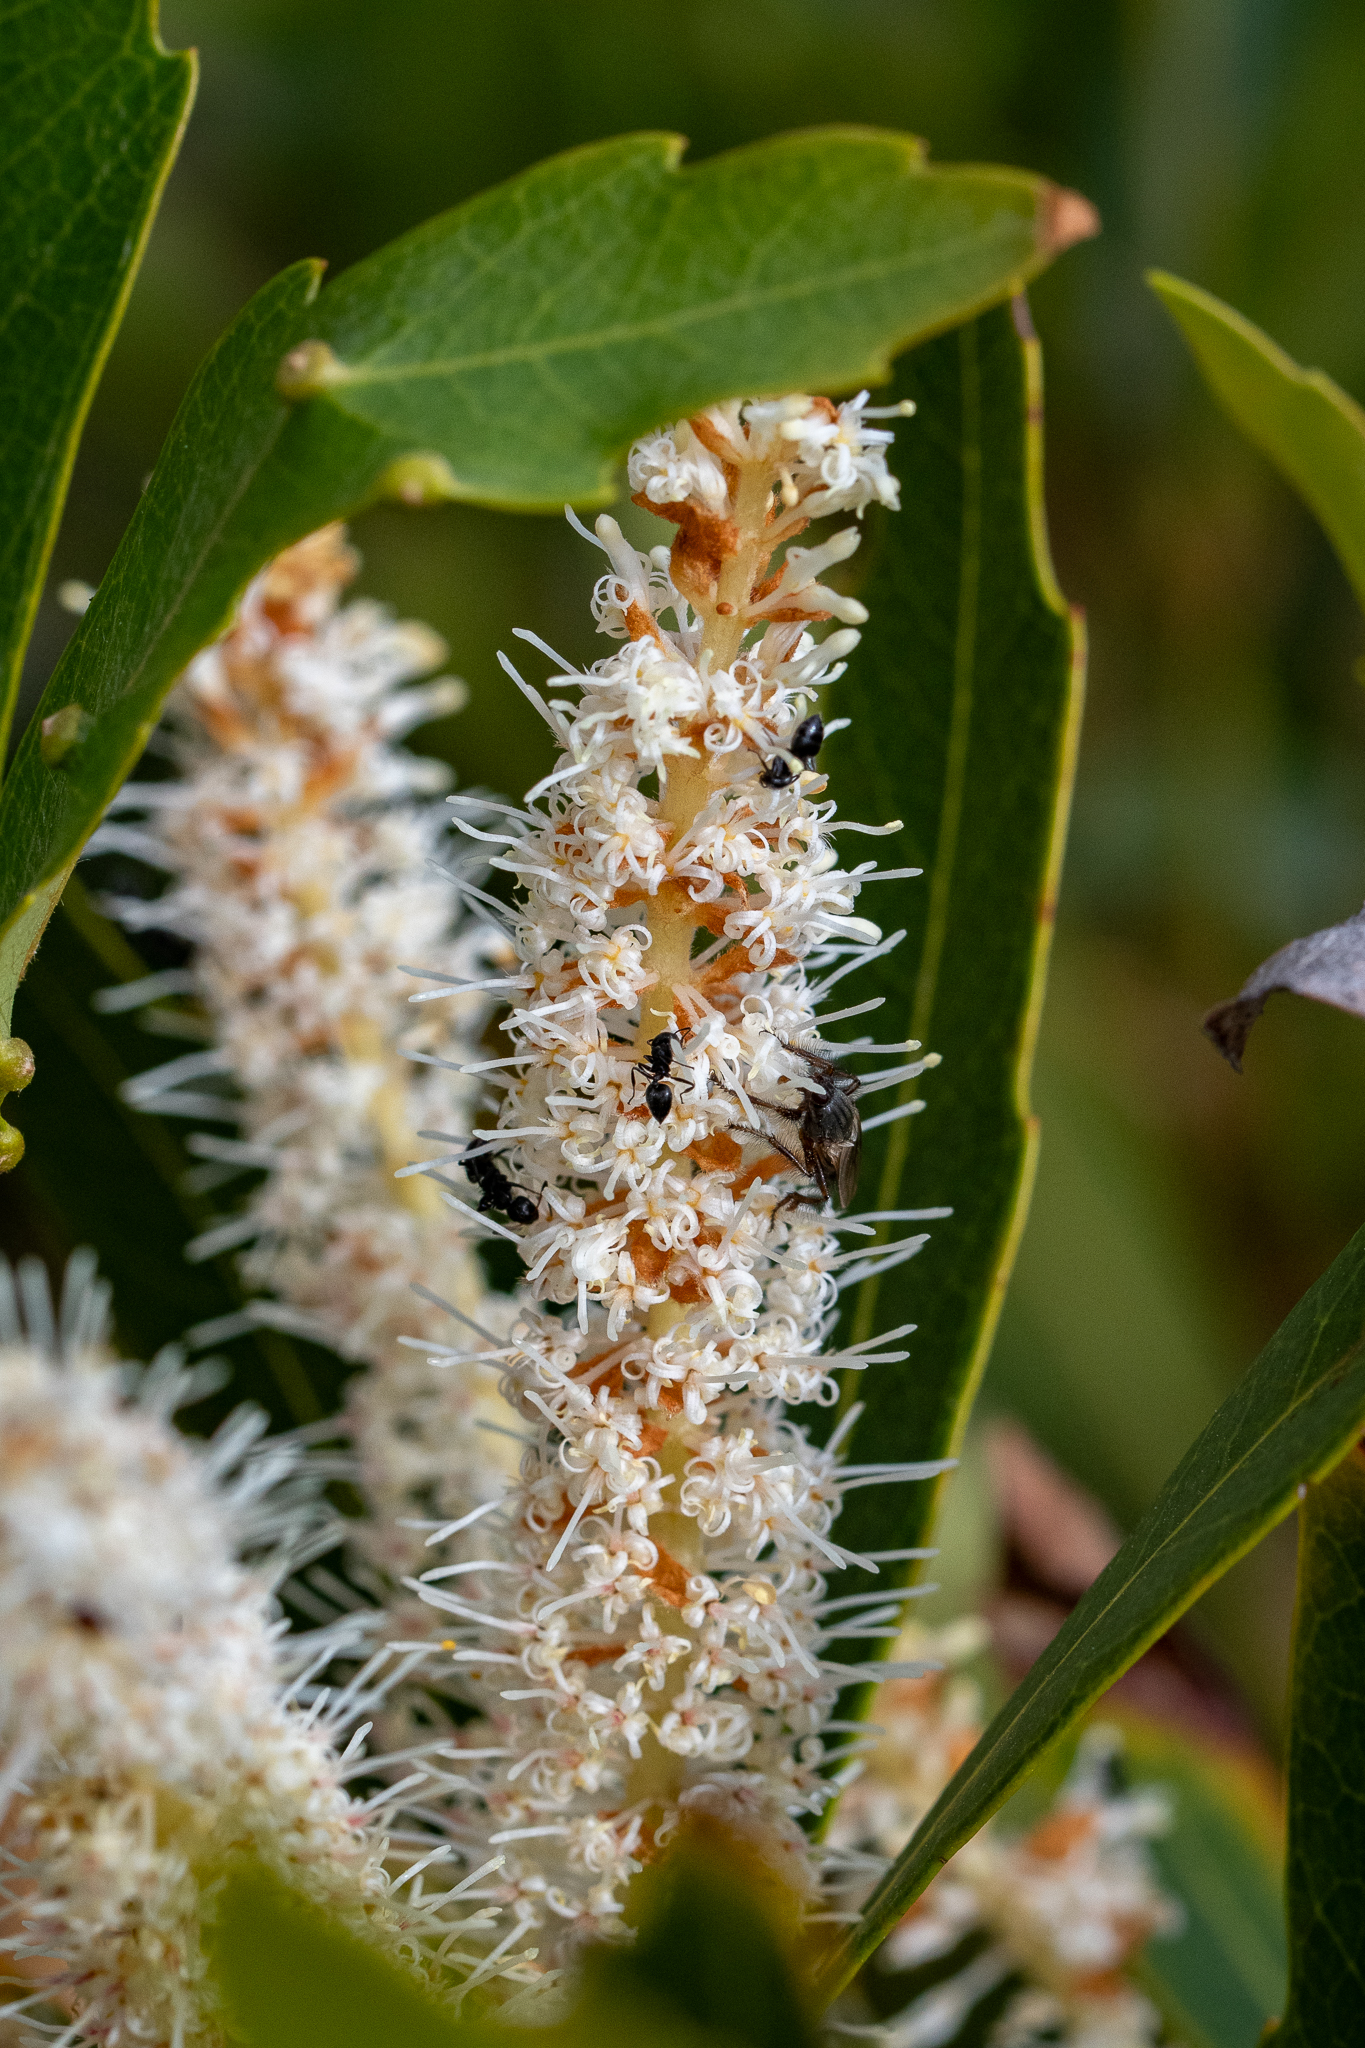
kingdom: Plantae
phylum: Tracheophyta
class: Magnoliopsida
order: Proteales
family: Proteaceae
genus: Brabejum
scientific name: Brabejum stellatifolium
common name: Wild almond
